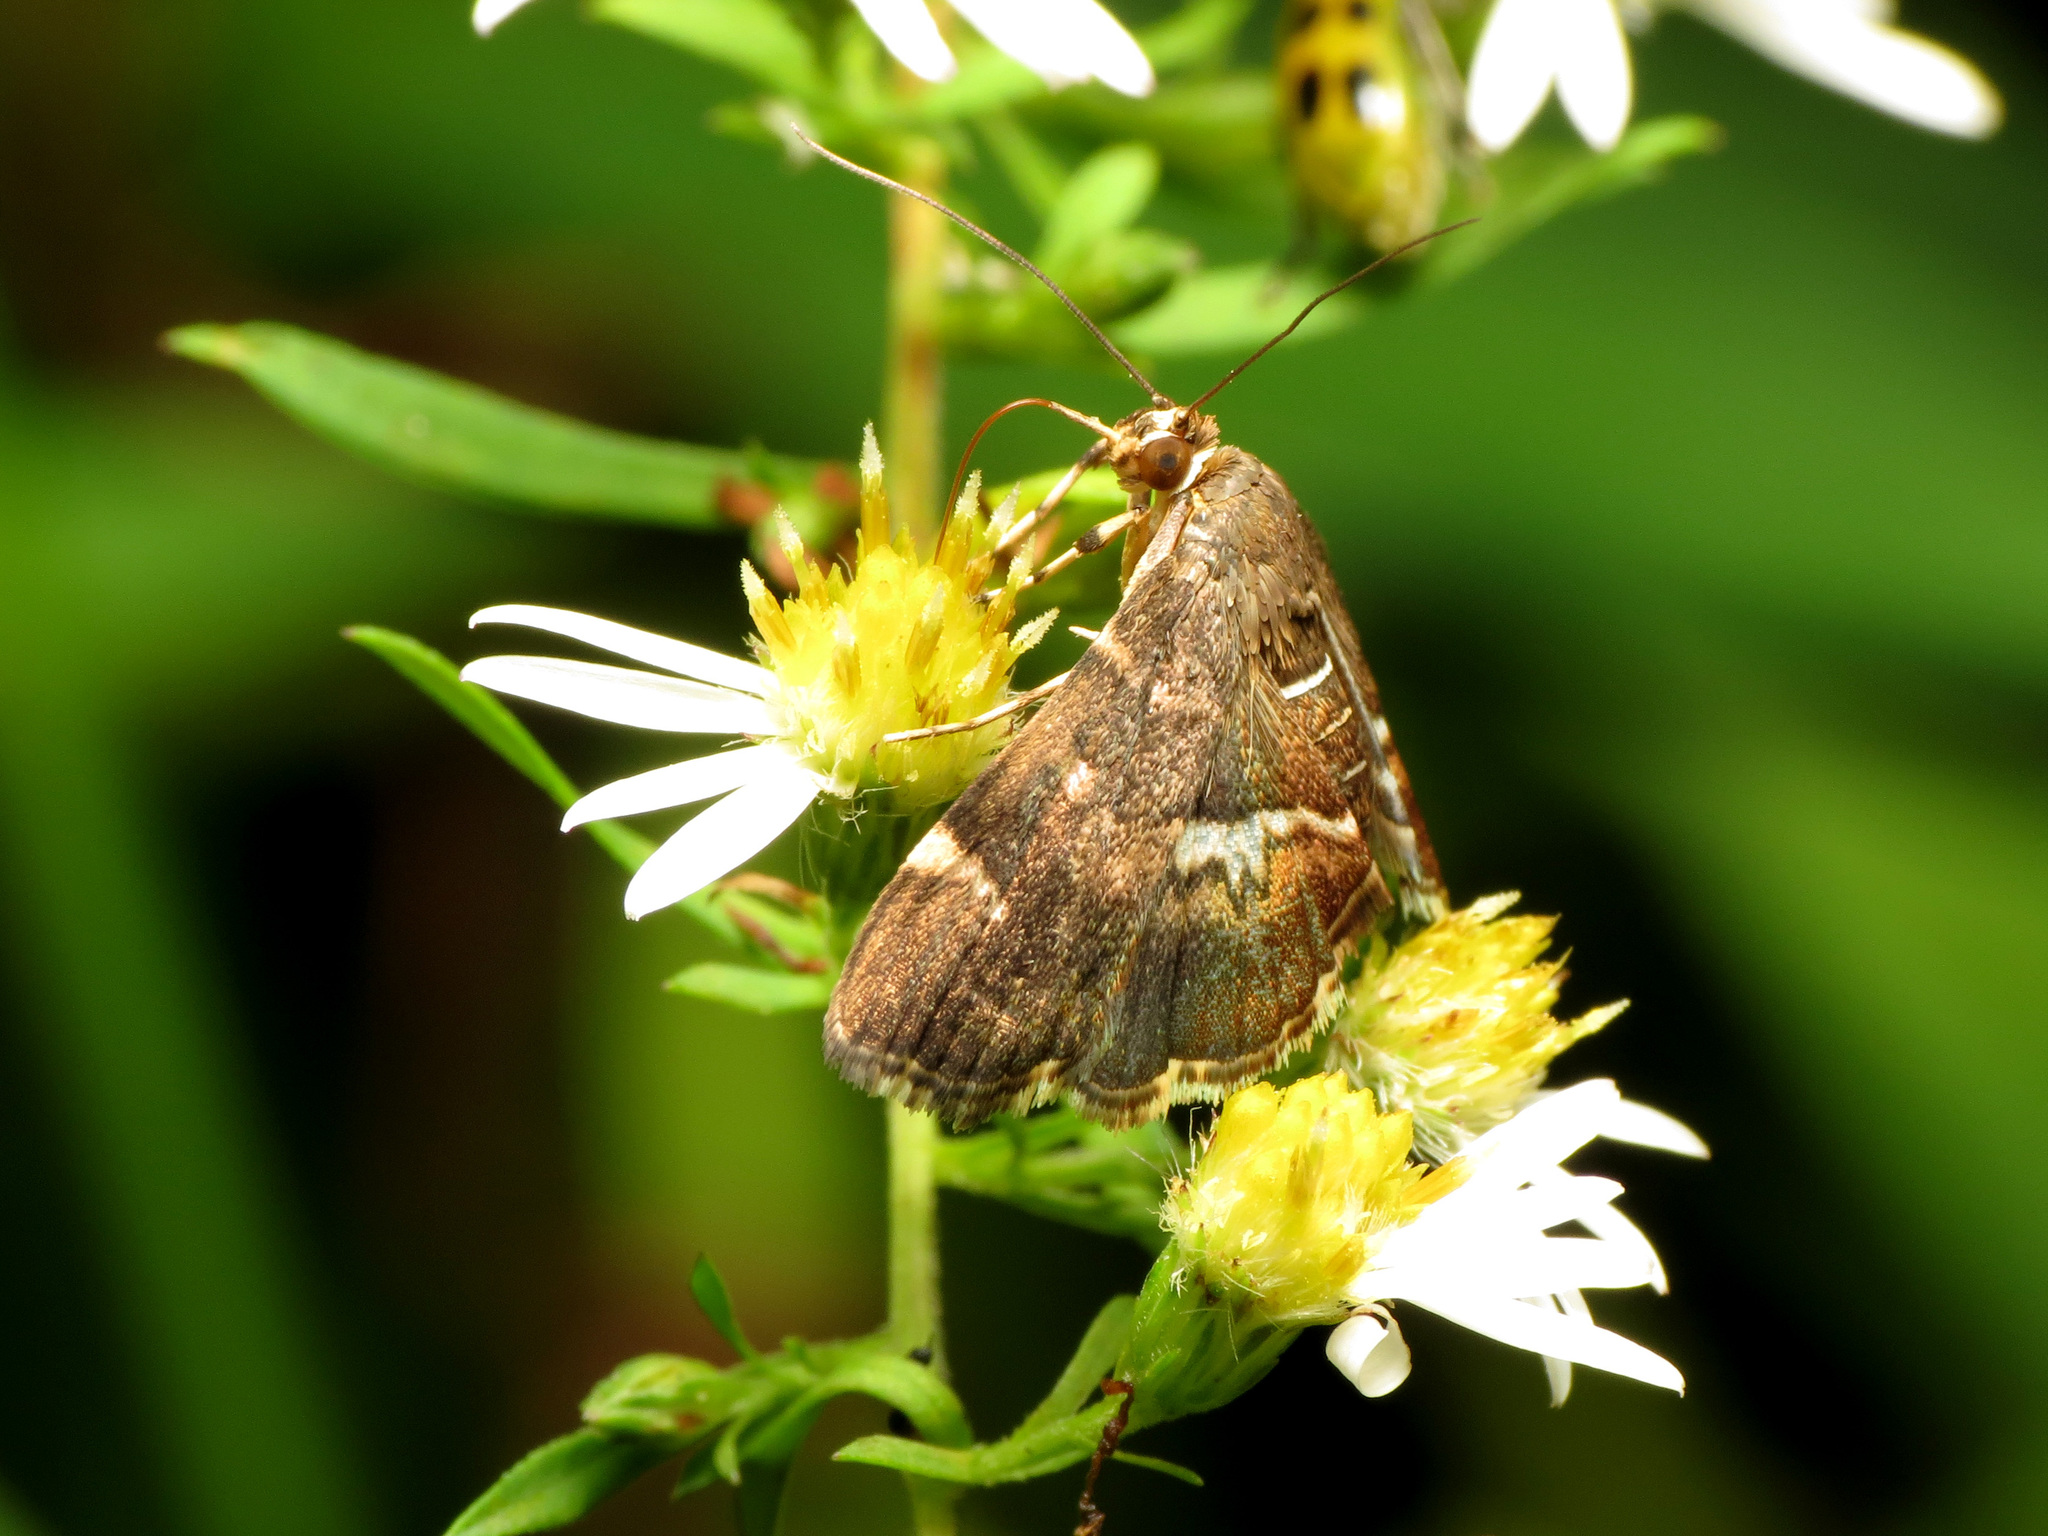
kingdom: Animalia
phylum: Arthropoda
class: Insecta
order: Lepidoptera
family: Crambidae
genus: Hymenia
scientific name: Hymenia perspectalis
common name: Spotted beet webworm
